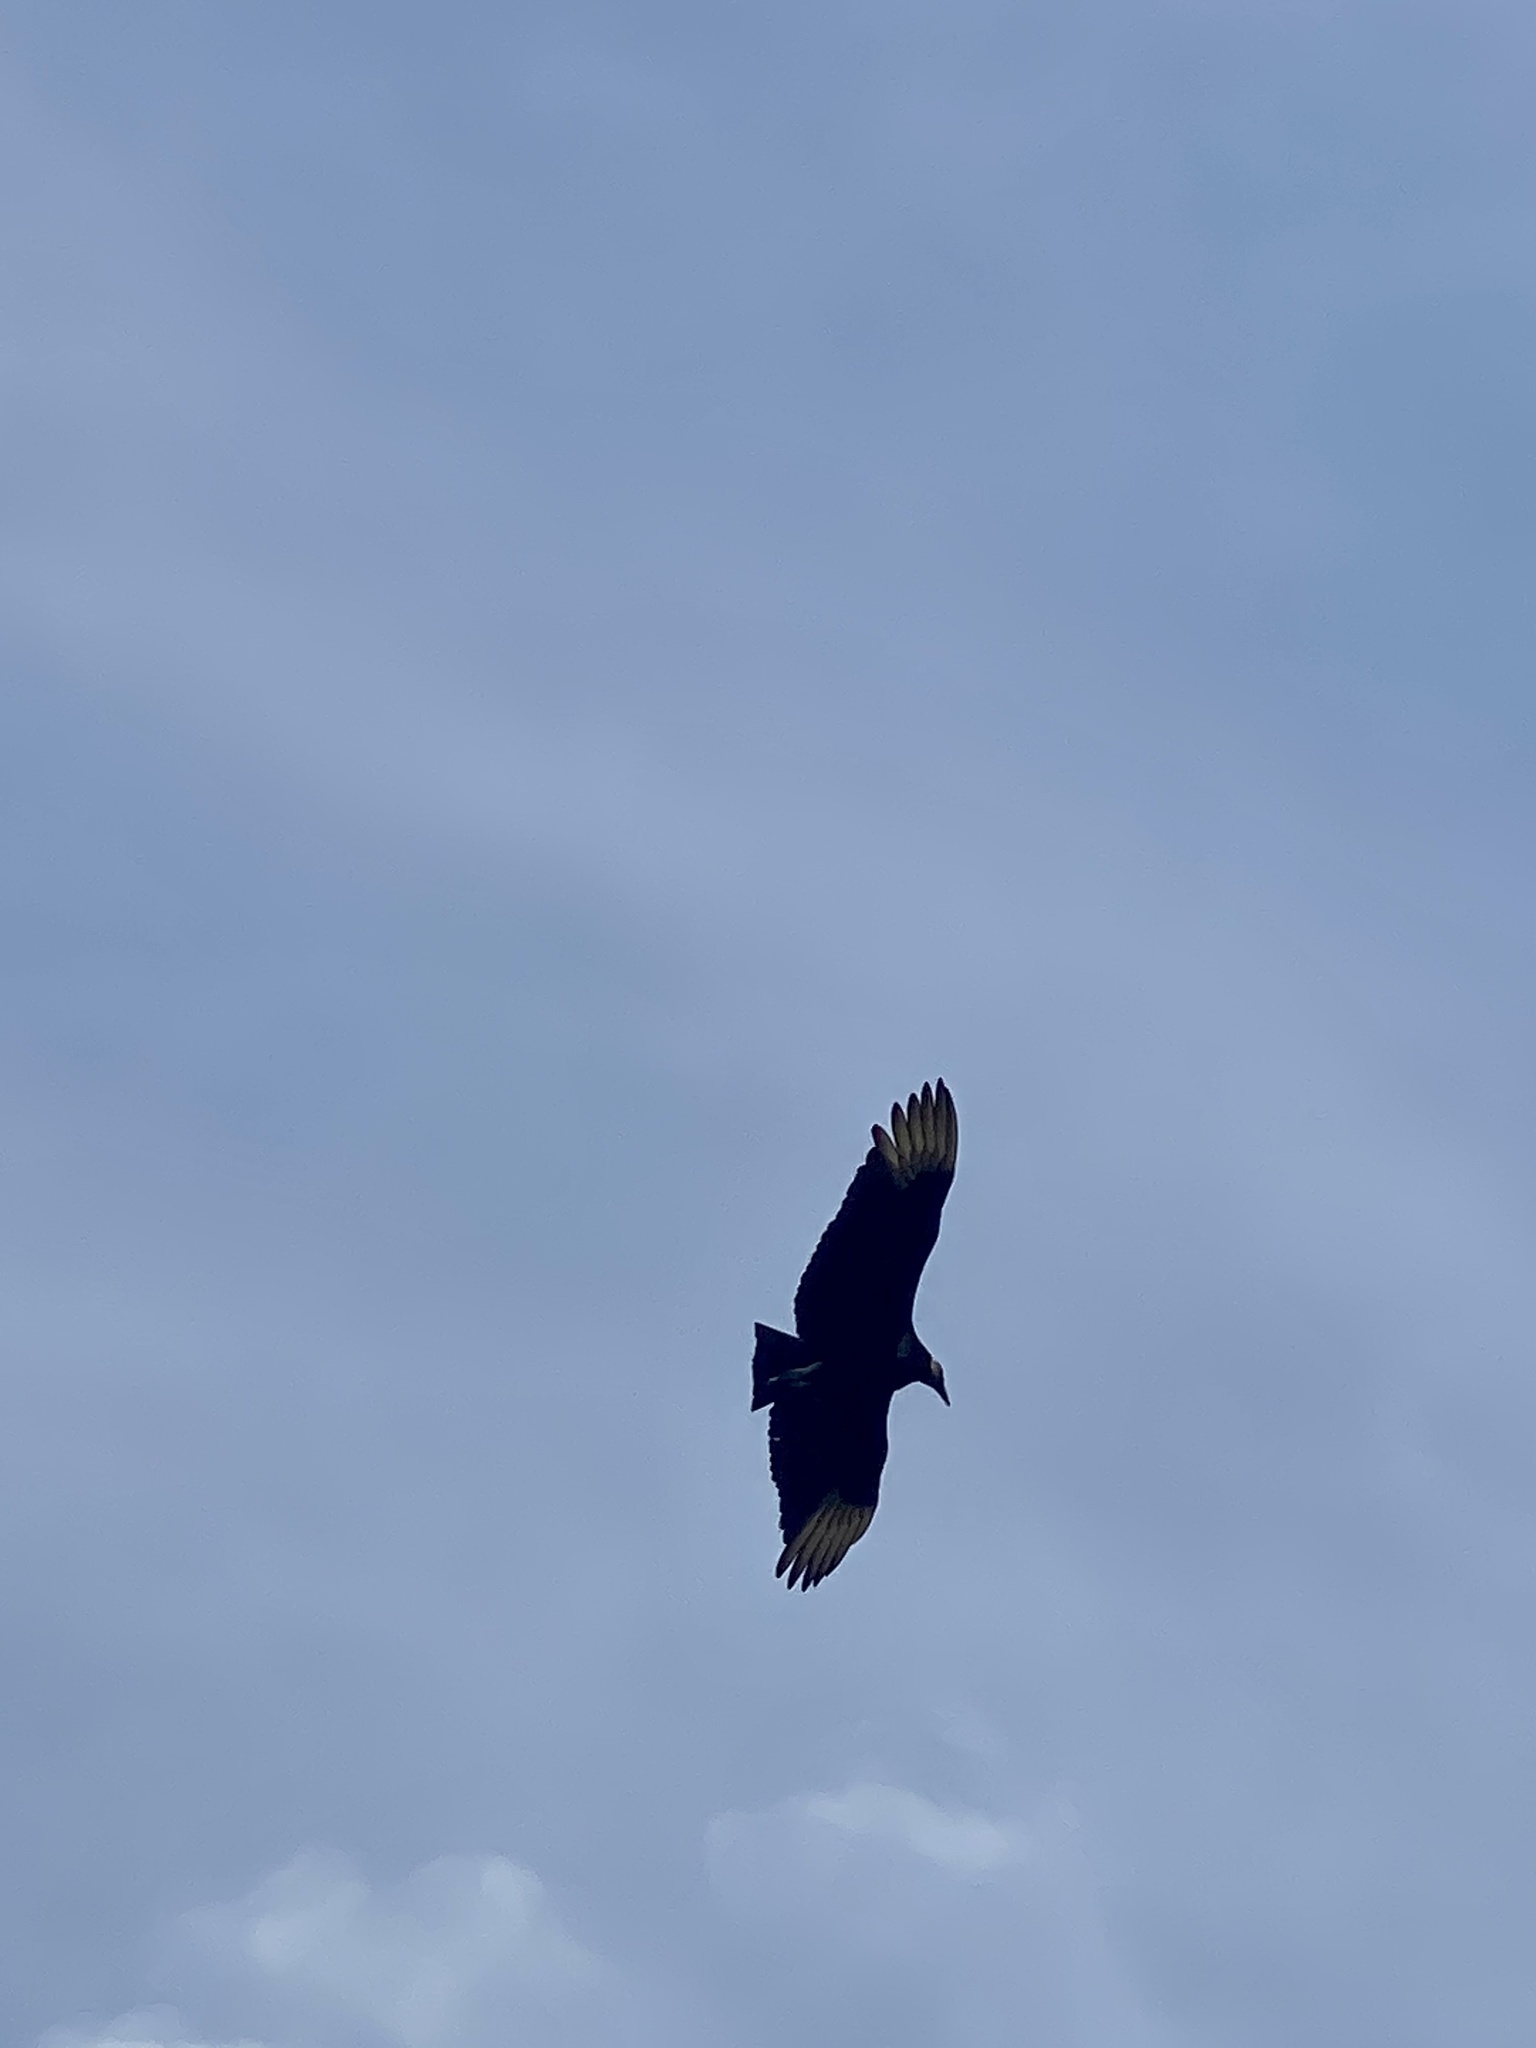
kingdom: Animalia
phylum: Chordata
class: Aves
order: Accipitriformes
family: Cathartidae
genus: Coragyps
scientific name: Coragyps atratus
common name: Black vulture
